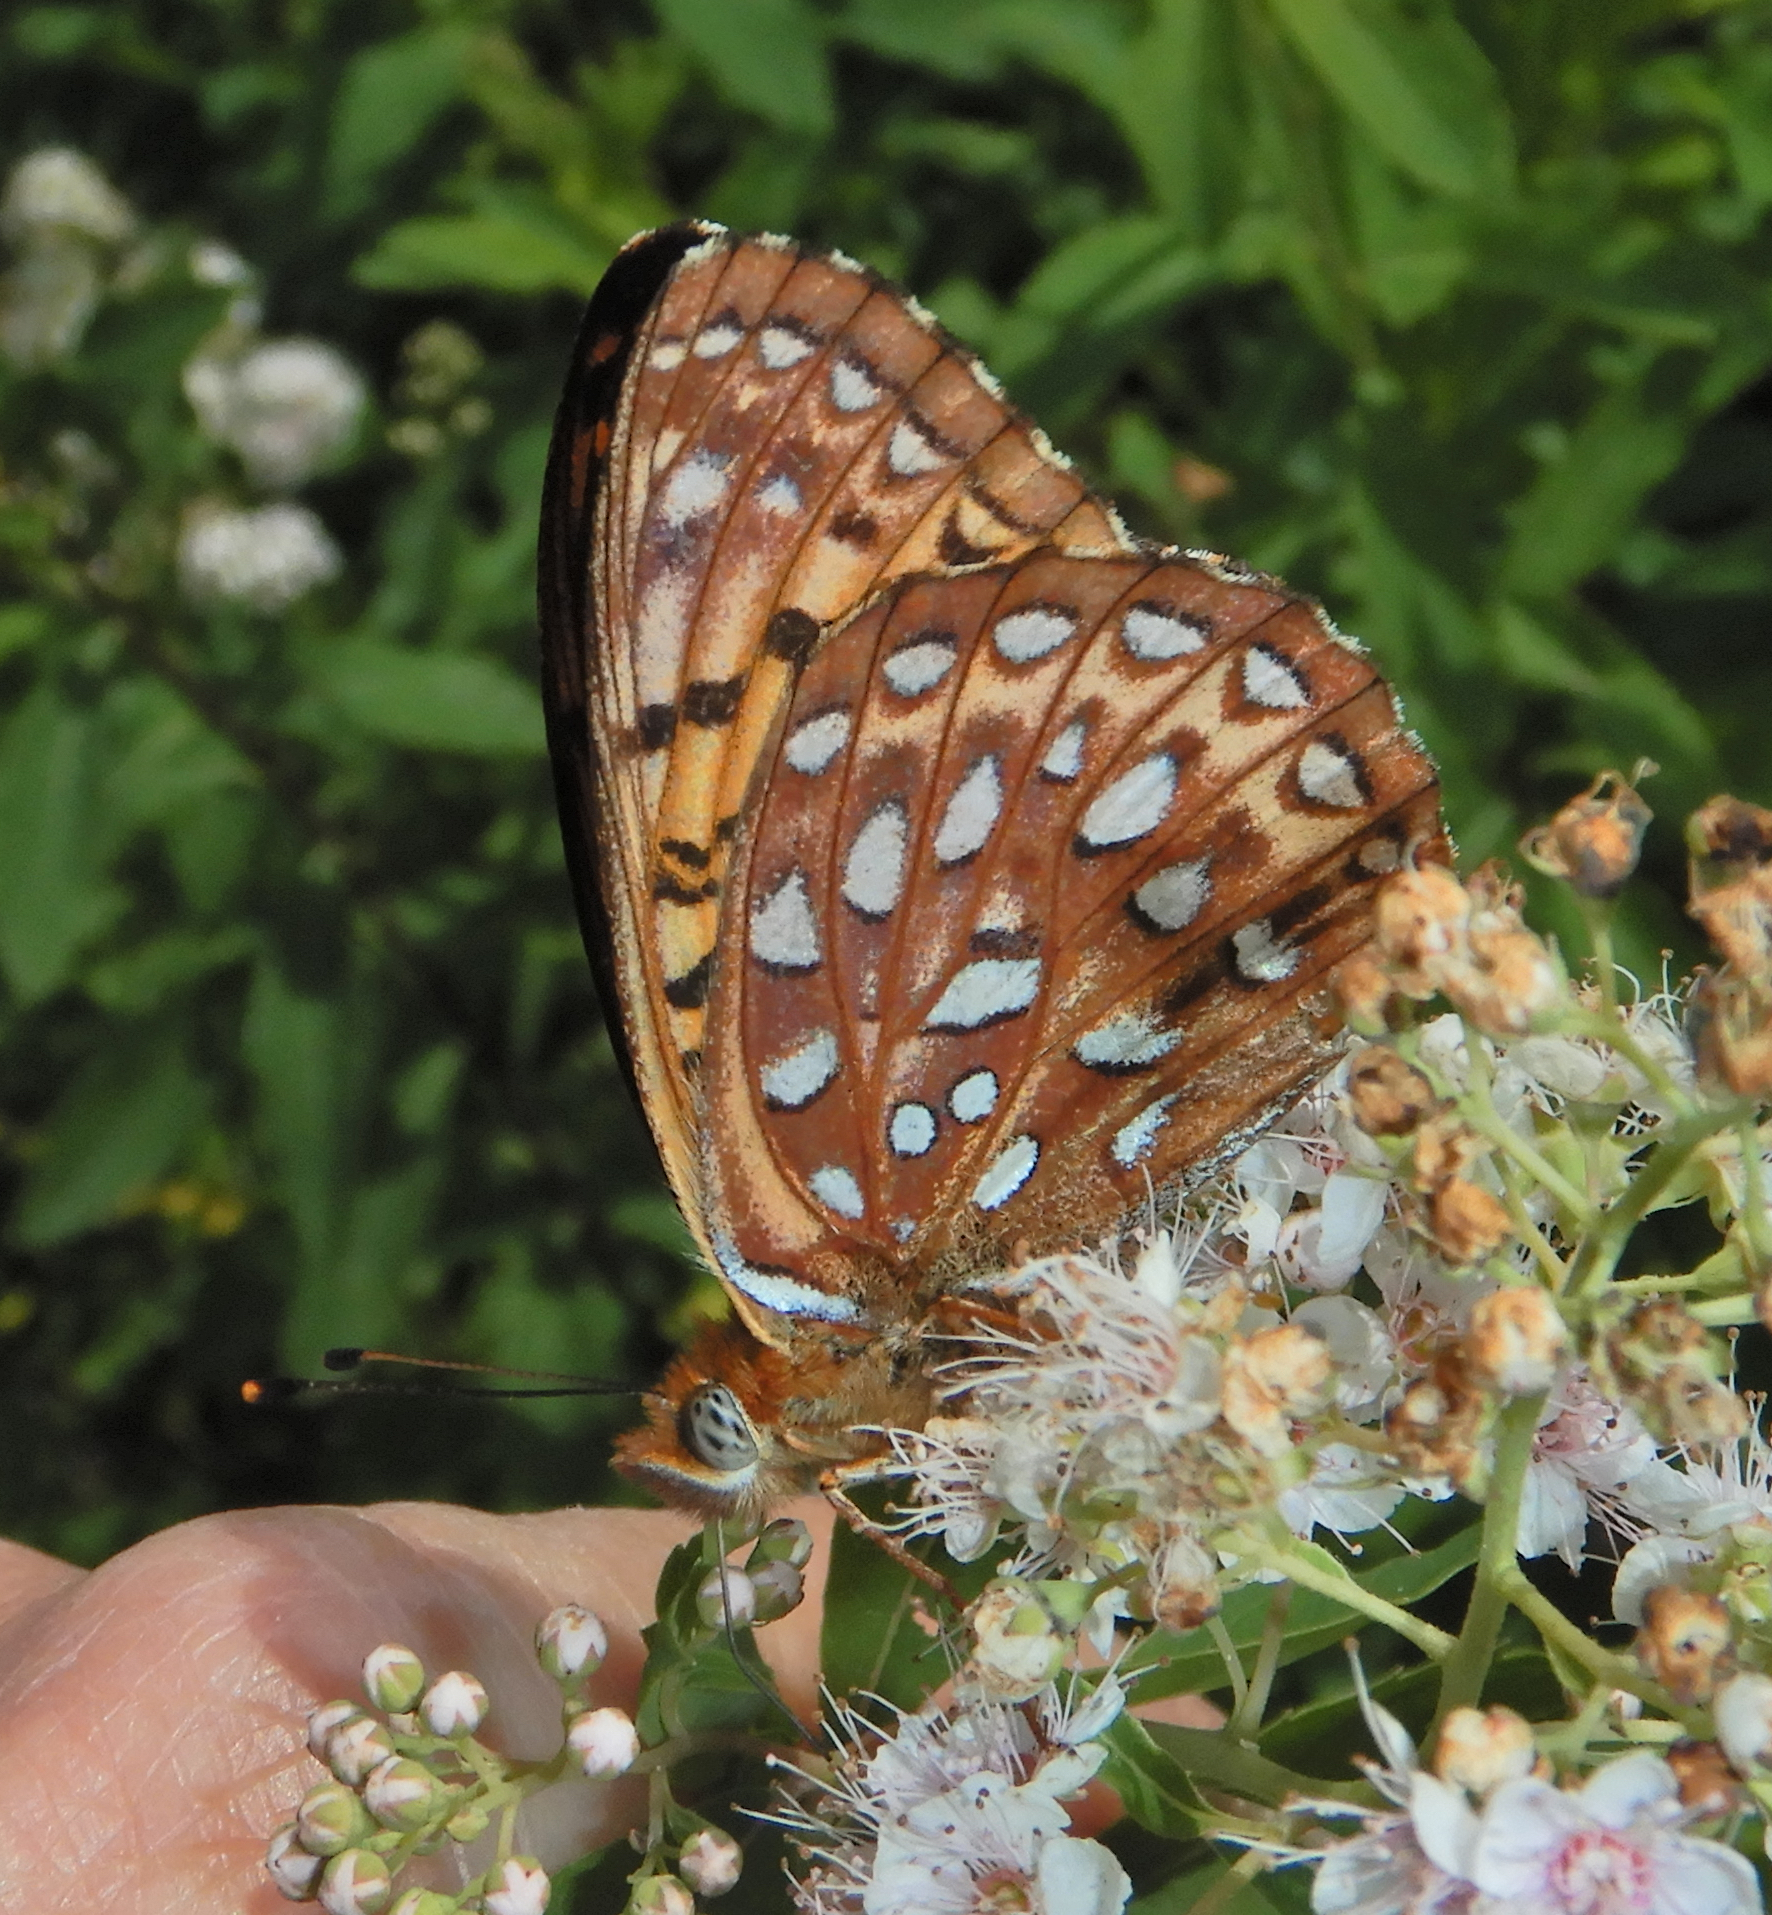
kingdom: Animalia
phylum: Arthropoda
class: Insecta
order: Lepidoptera
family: Nymphalidae
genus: Speyeria
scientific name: Speyeria atlantis
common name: Atlantis fritillary
